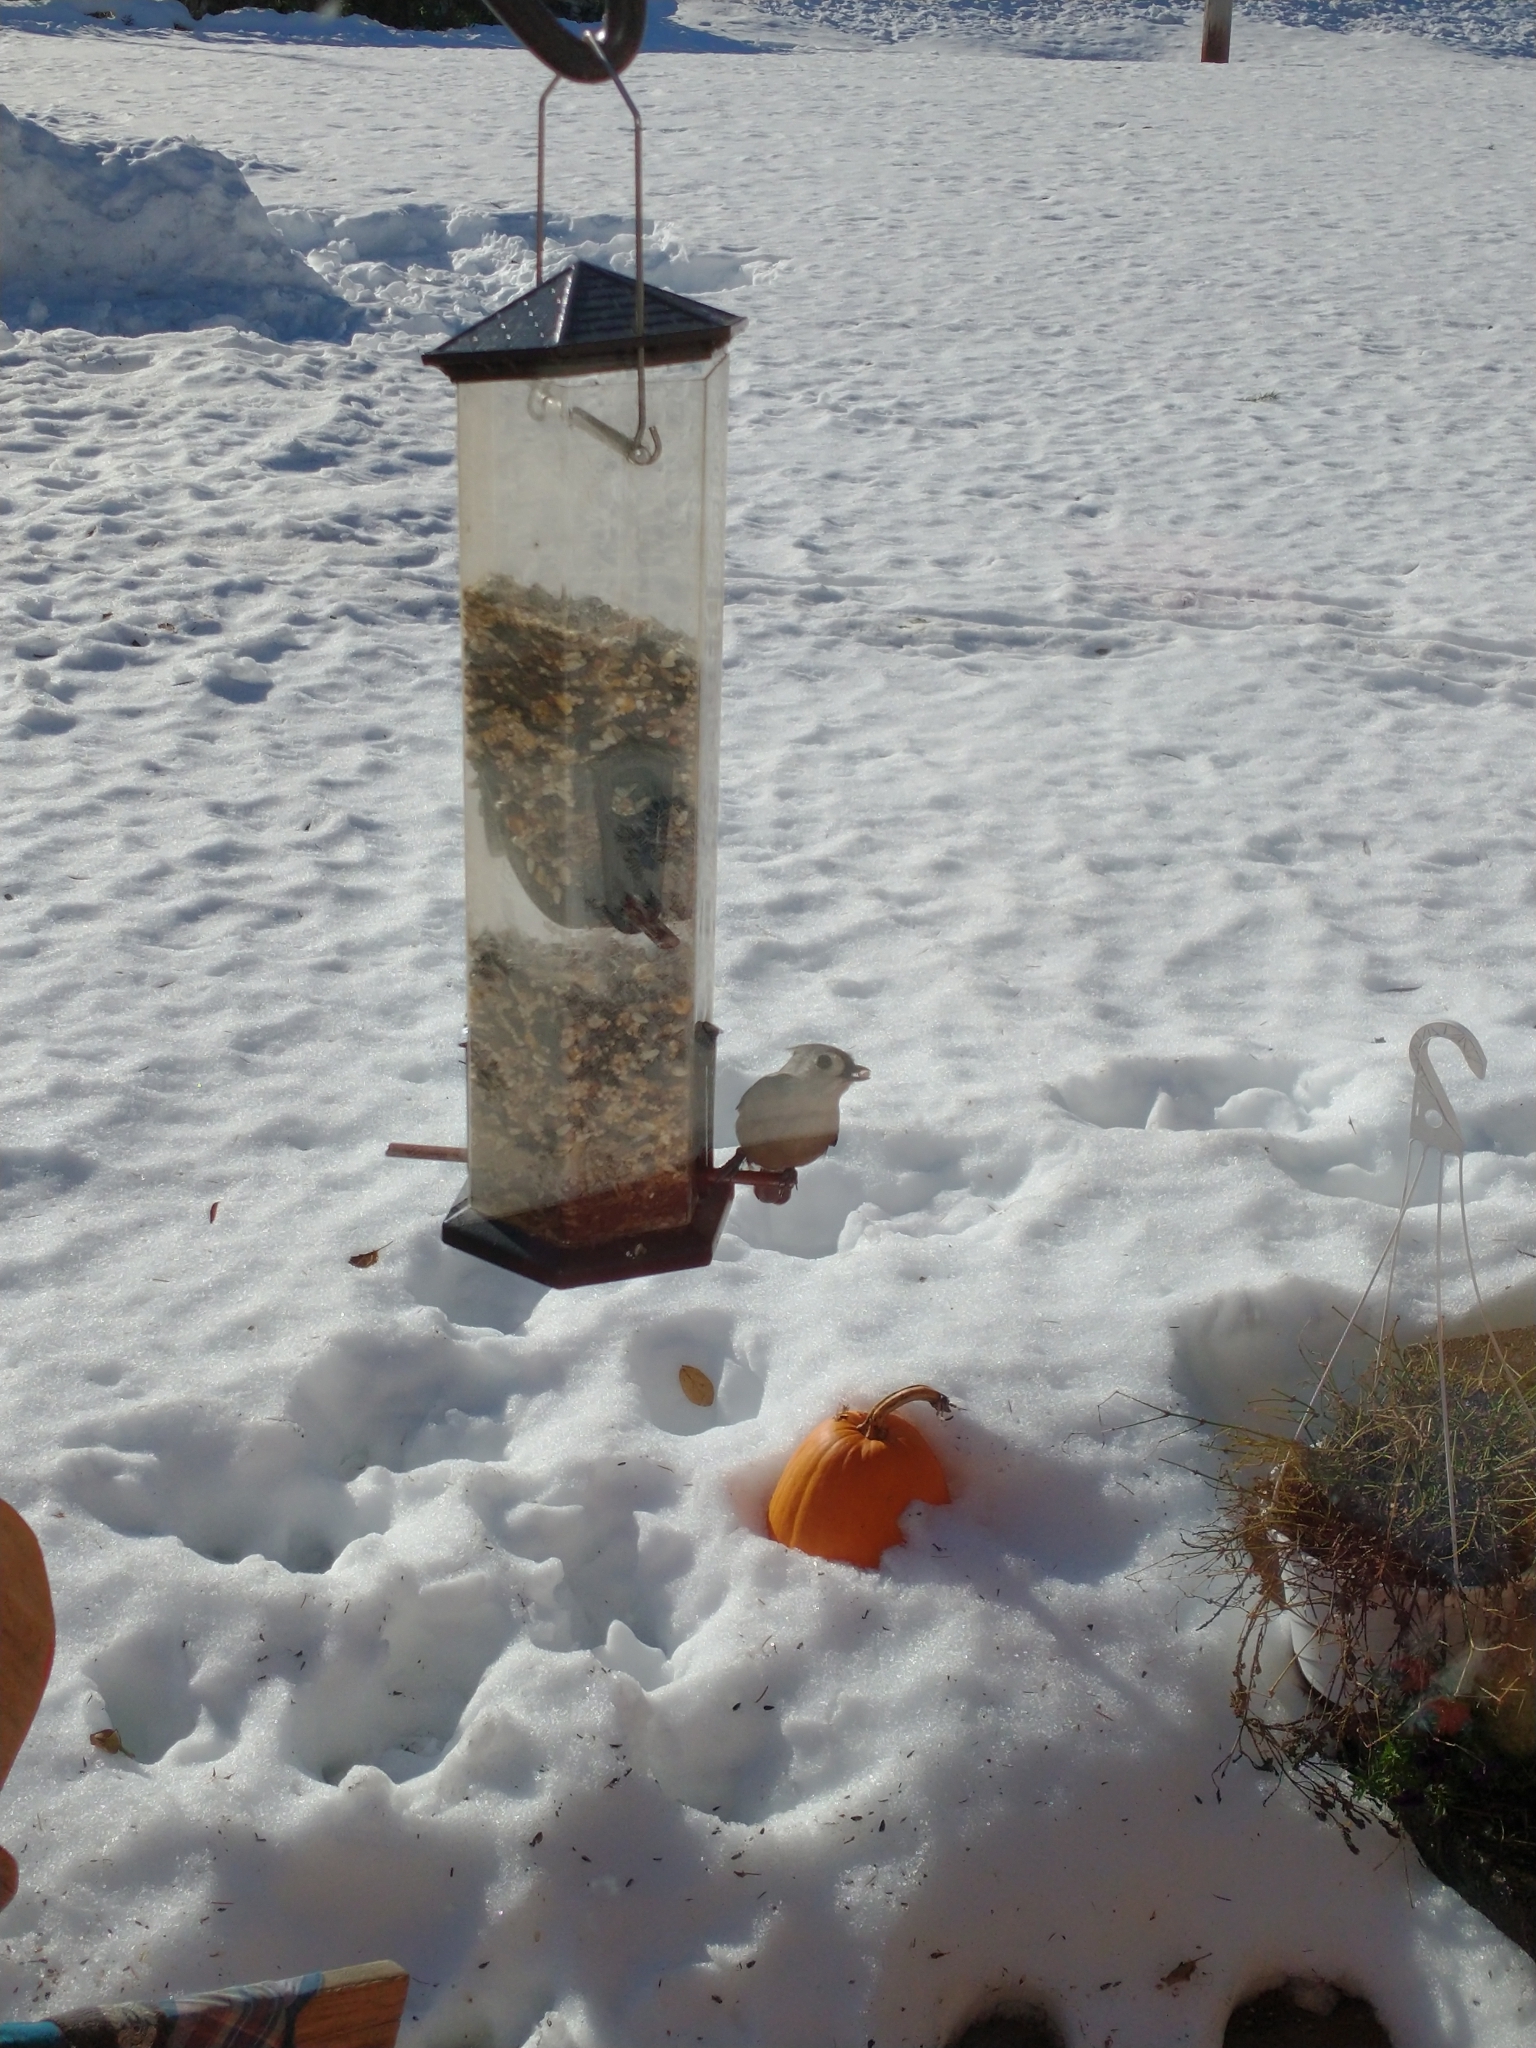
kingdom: Animalia
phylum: Chordata
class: Aves
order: Passeriformes
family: Paridae
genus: Baeolophus
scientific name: Baeolophus bicolor
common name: Tufted titmouse
